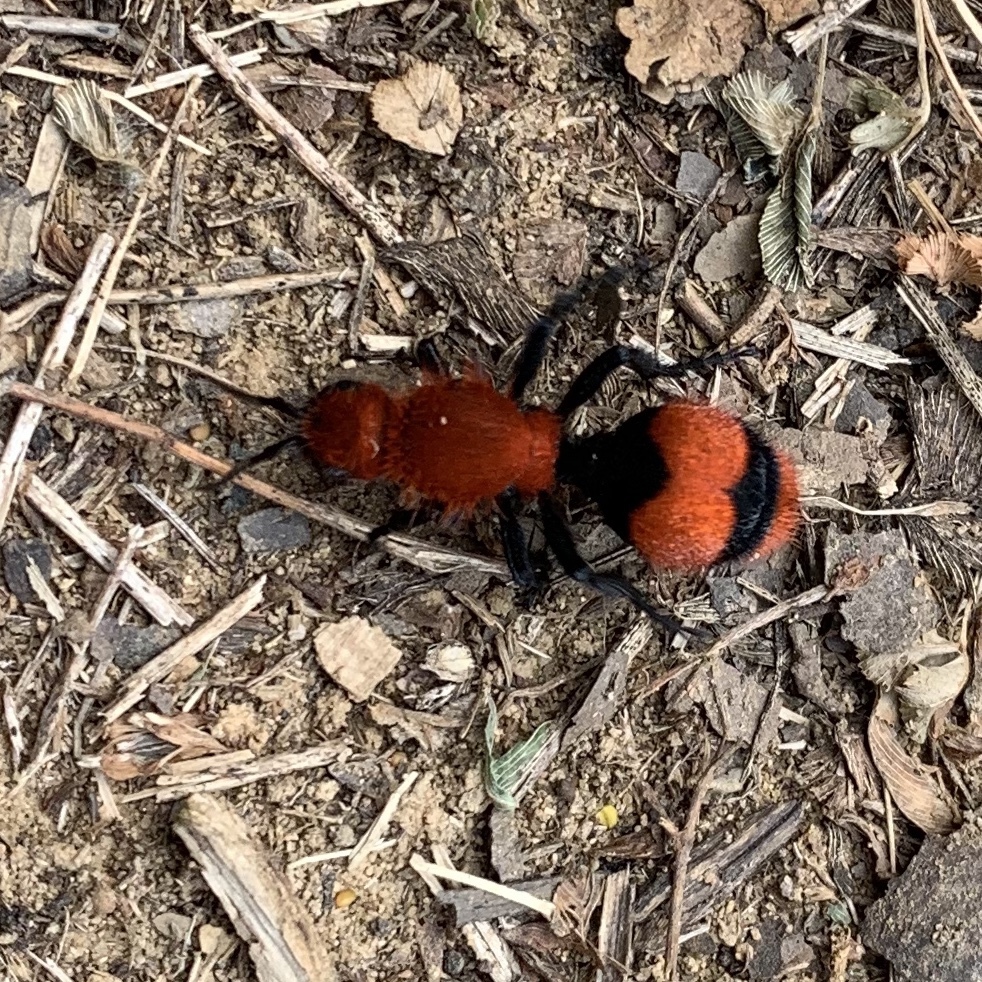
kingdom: Animalia
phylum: Arthropoda
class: Insecta
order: Hymenoptera
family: Mutillidae
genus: Dasymutilla
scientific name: Dasymutilla occidentalis
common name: Common eastern velvet ant
